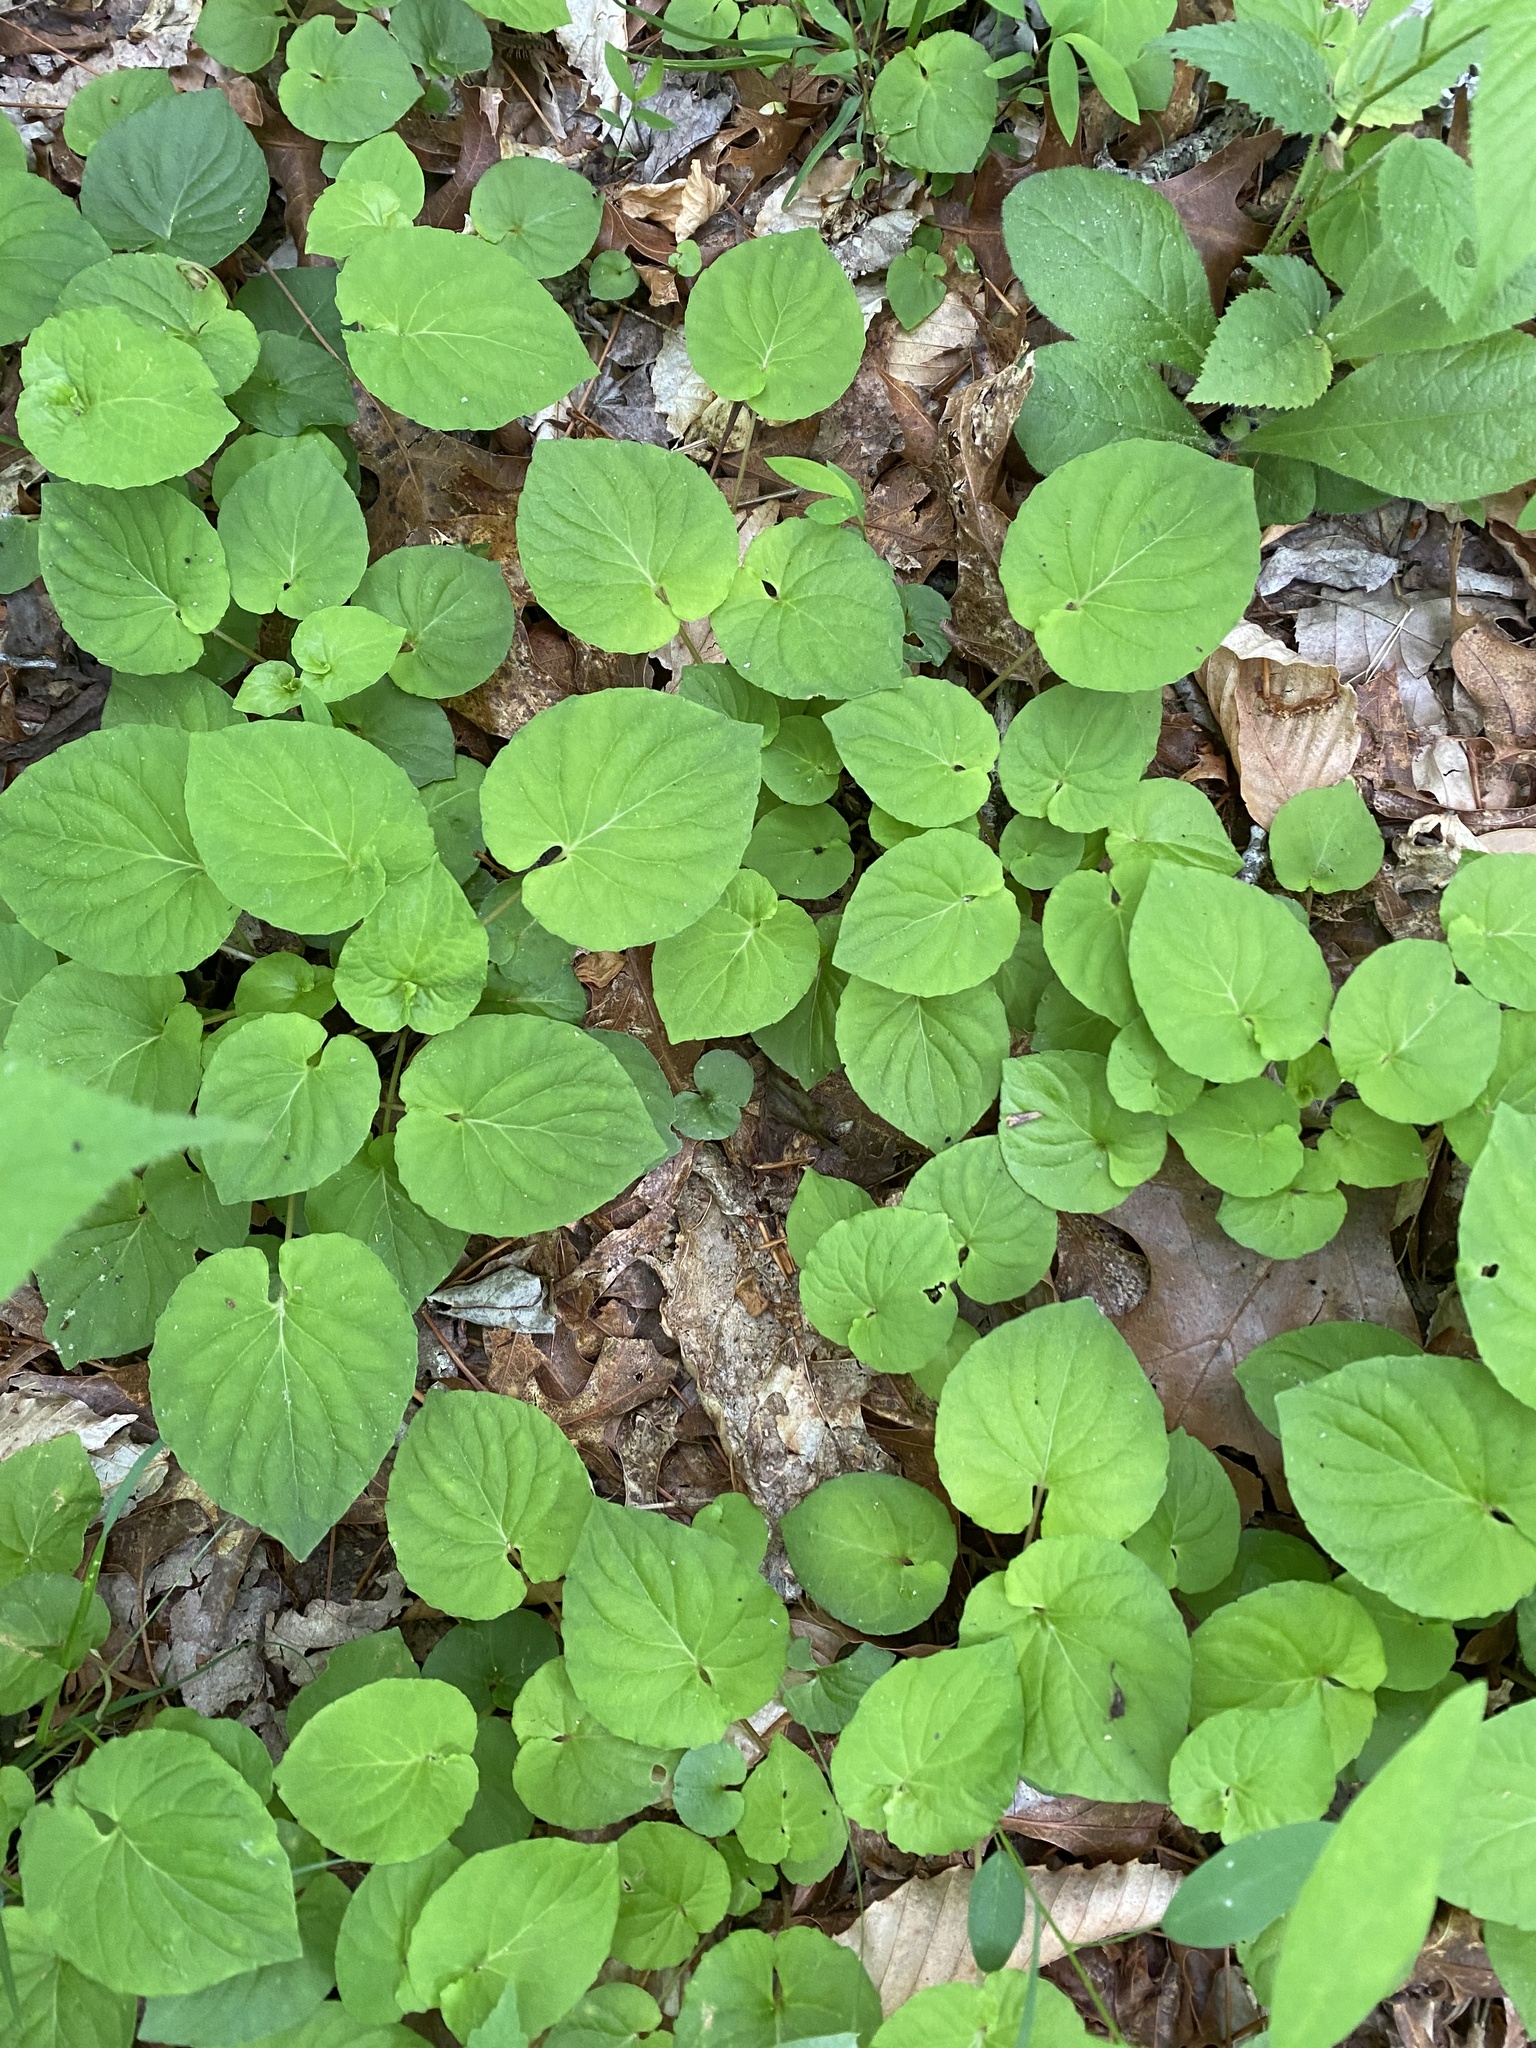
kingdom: Plantae
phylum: Tracheophyta
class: Magnoliopsida
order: Malpighiales
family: Violaceae
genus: Viola
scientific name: Viola blanda
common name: Sweet white violet
